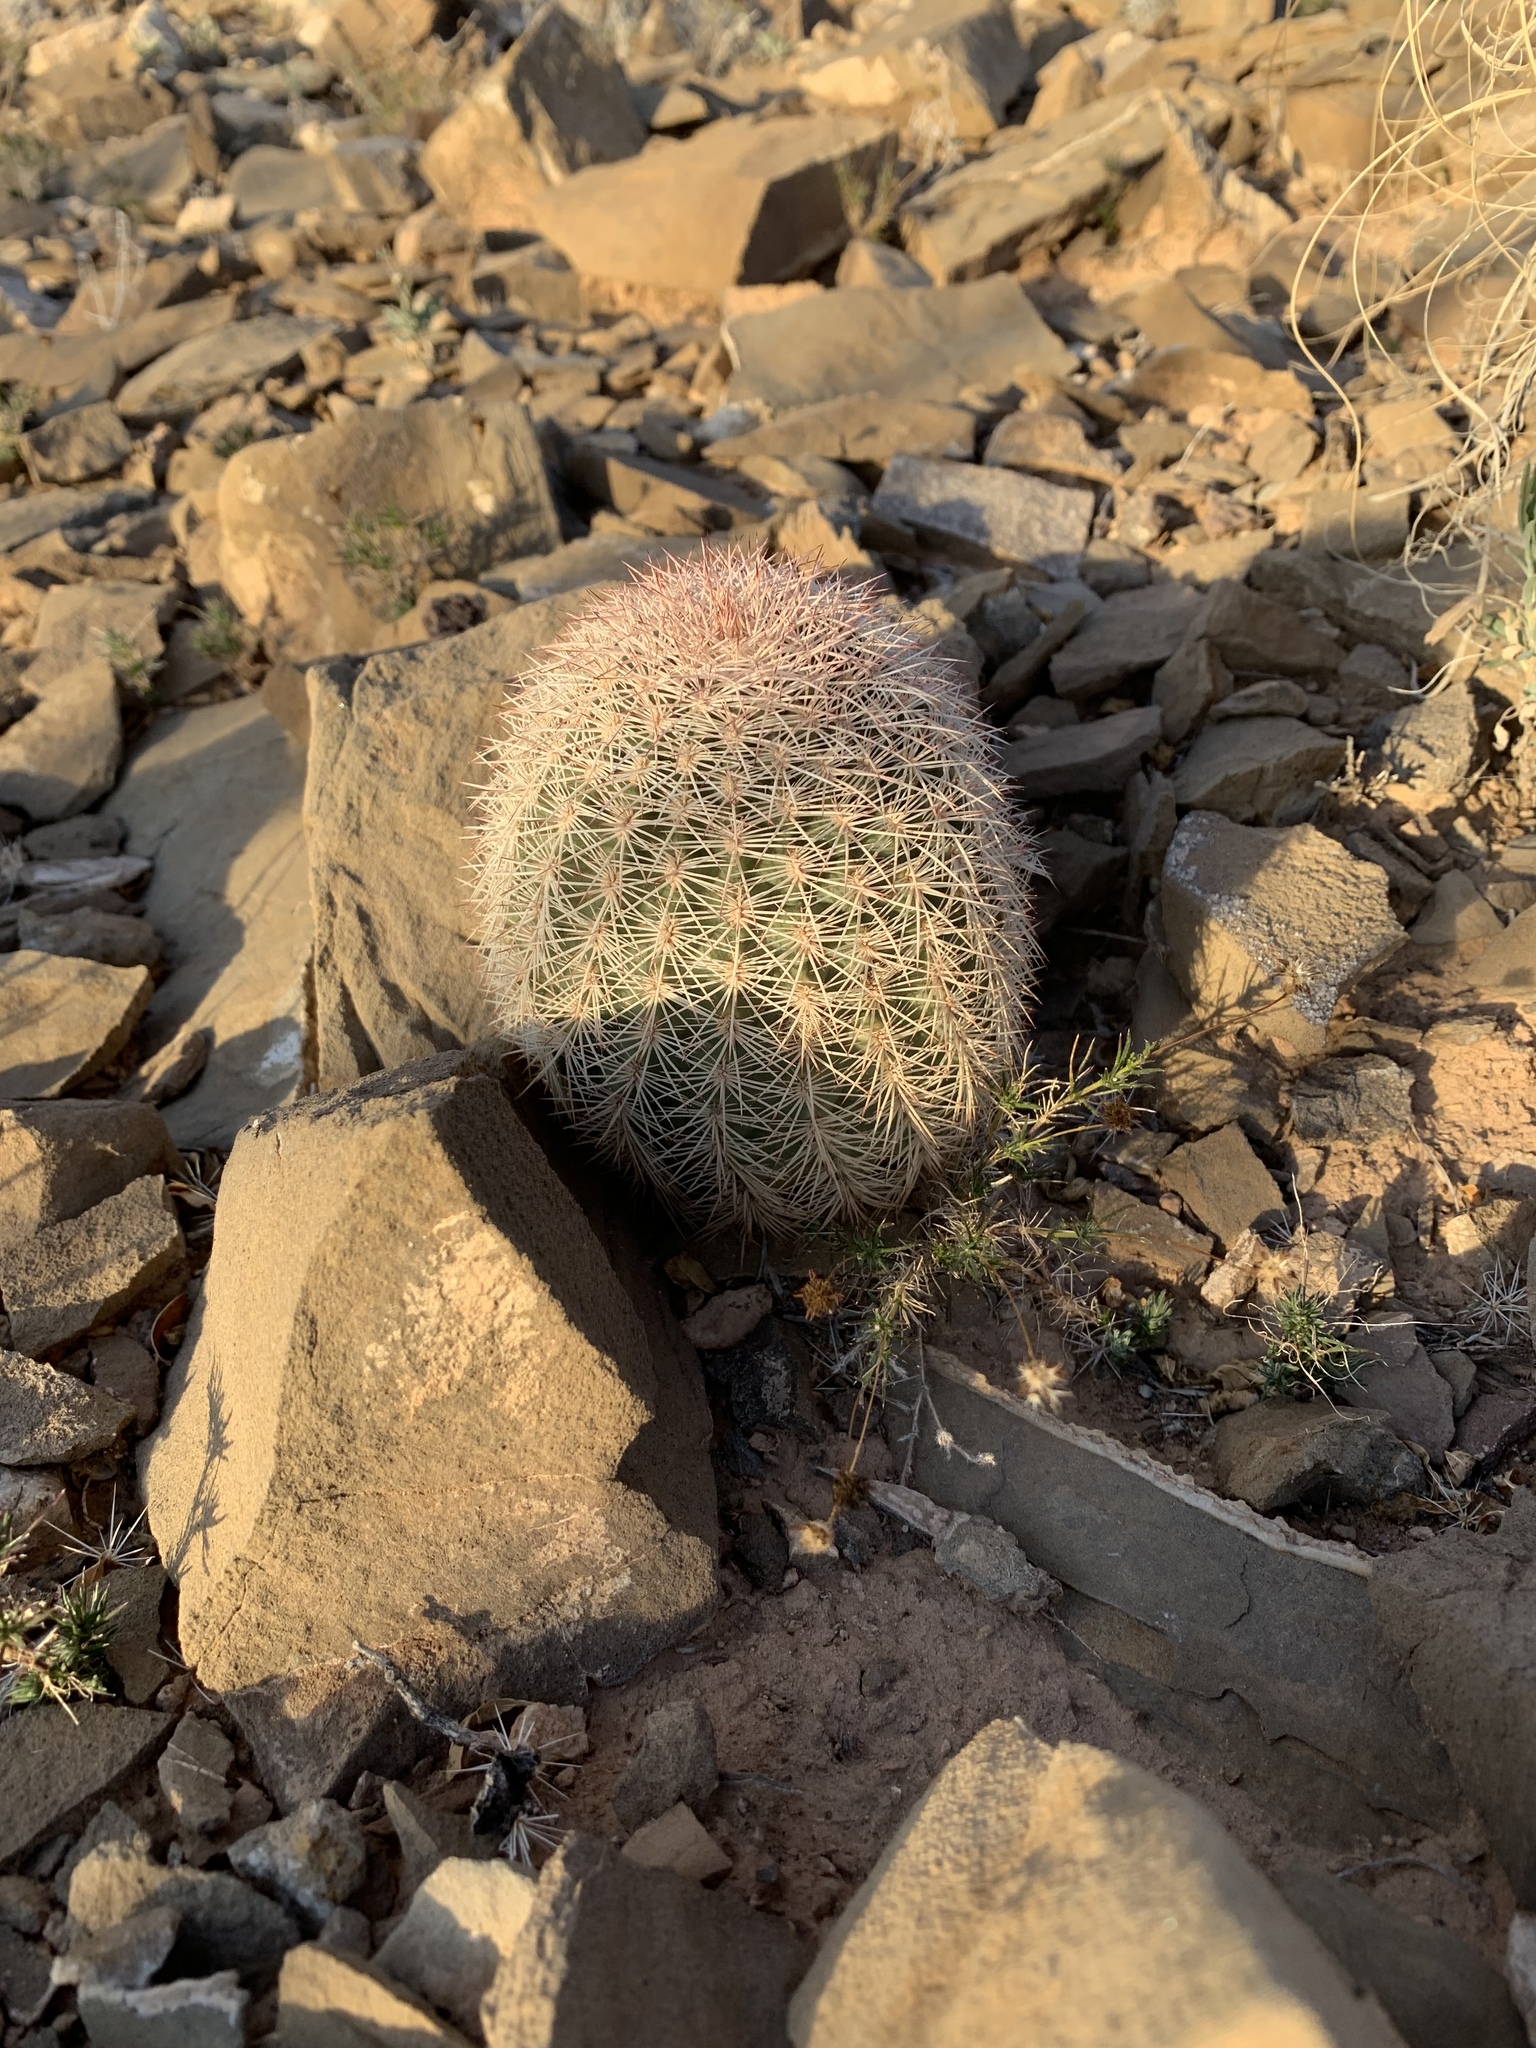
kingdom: Plantae
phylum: Tracheophyta
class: Magnoliopsida
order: Caryophyllales
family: Cactaceae
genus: Echinocereus
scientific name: Echinocereus dasyacanthus
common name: Spiny hedgehog cactus
